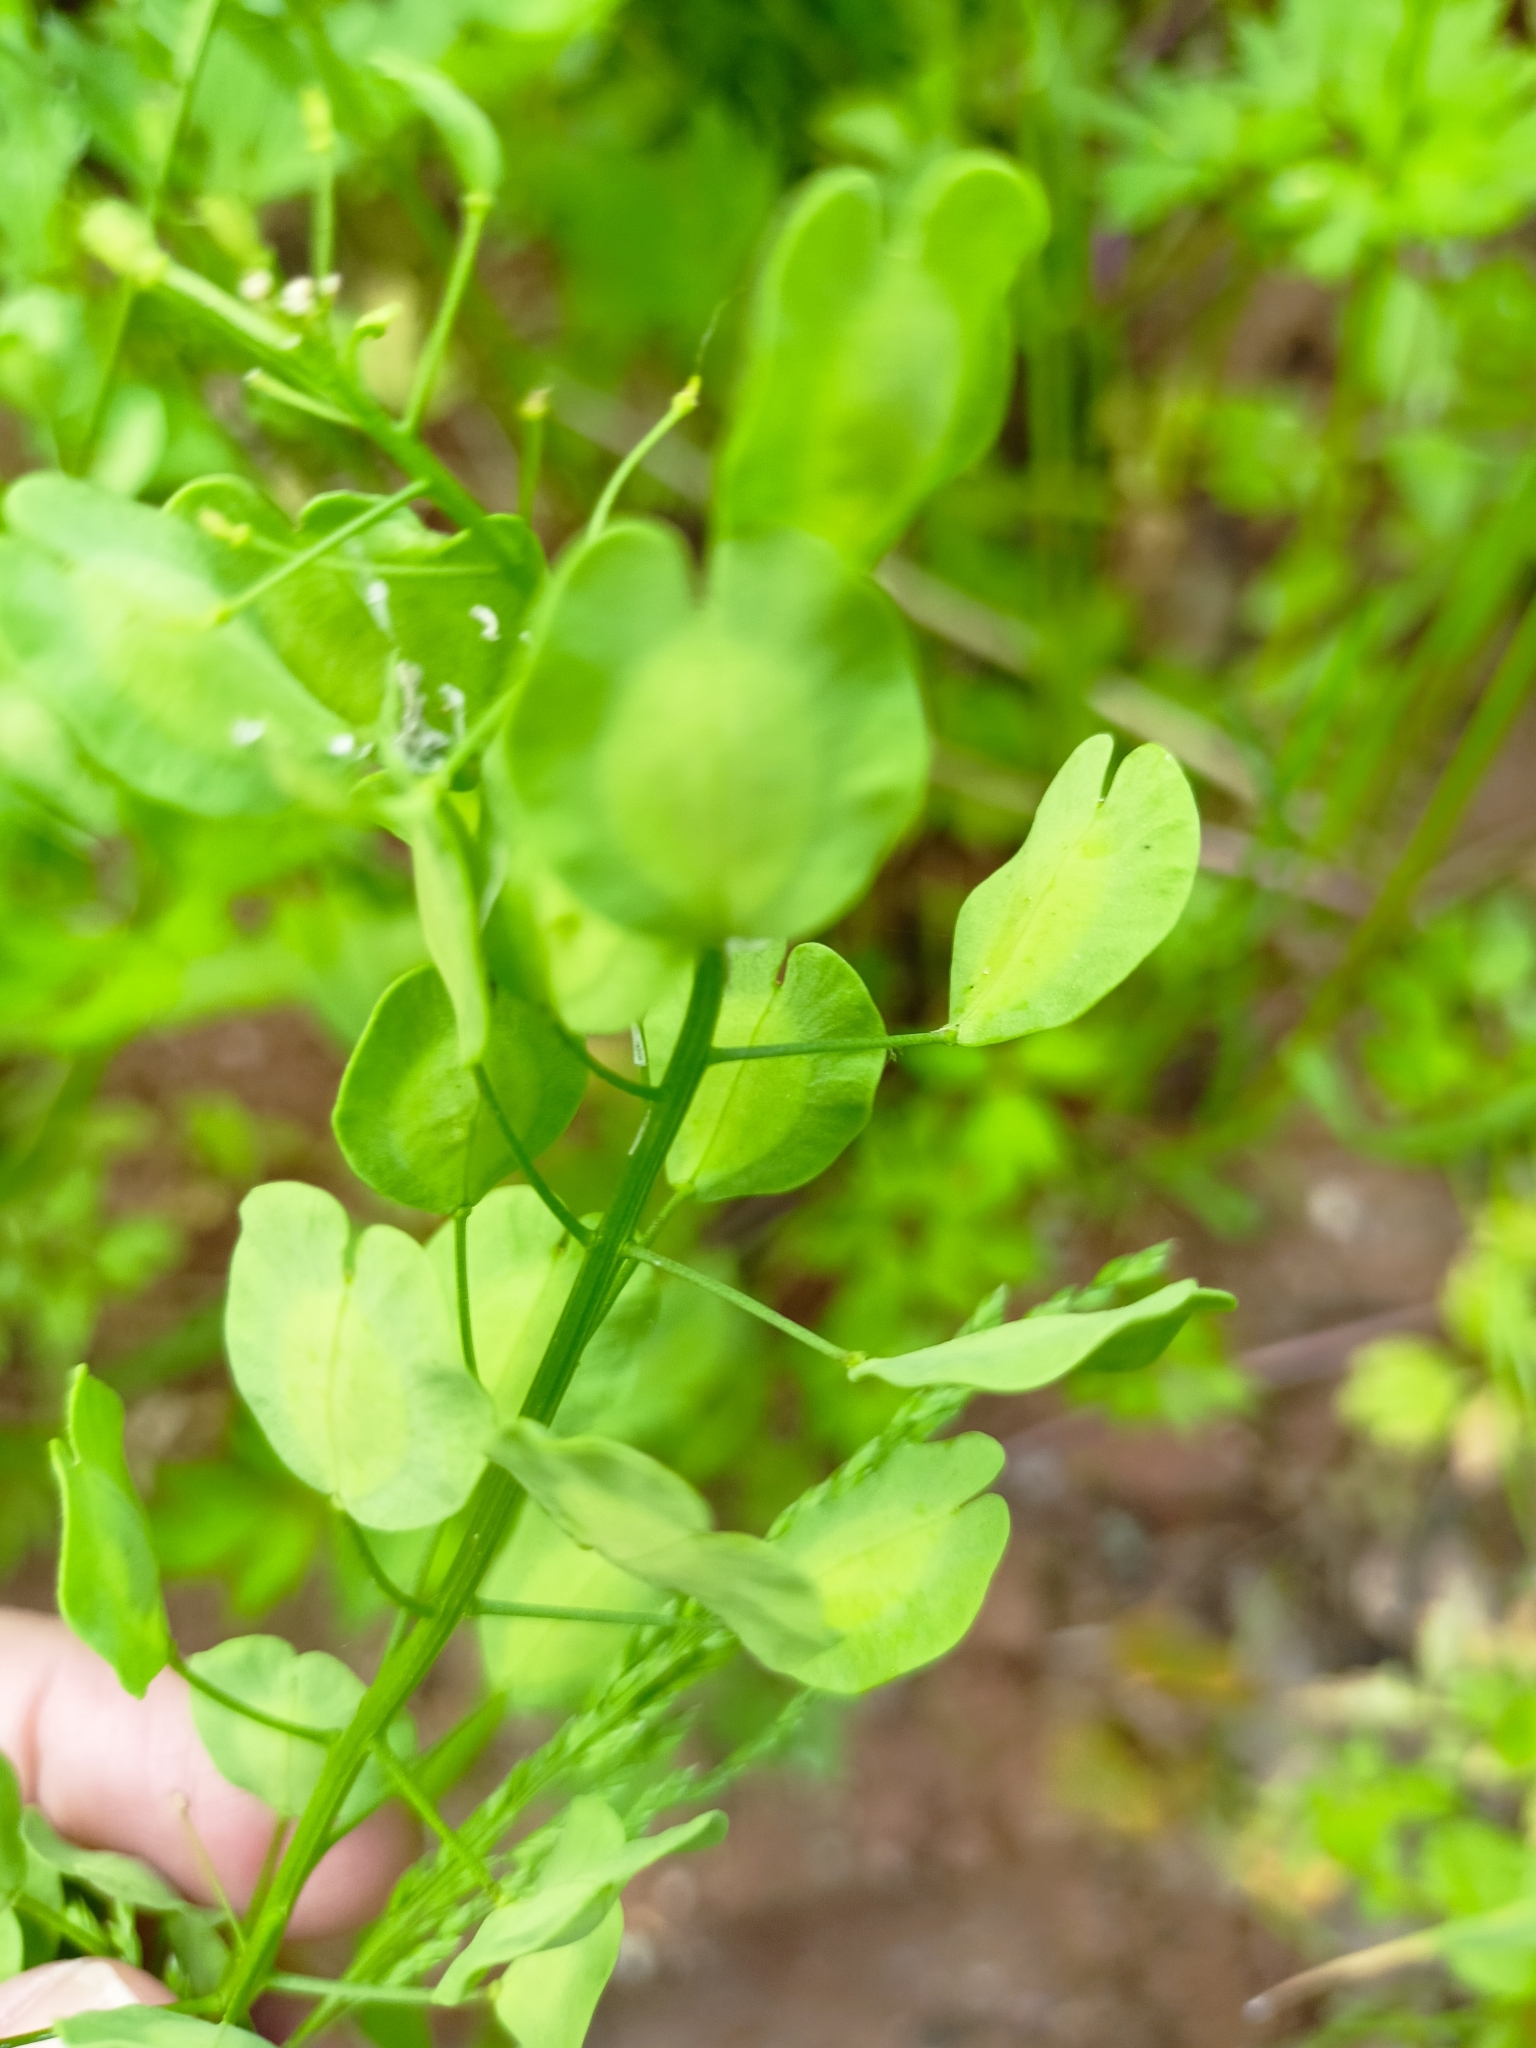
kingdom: Plantae
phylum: Tracheophyta
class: Magnoliopsida
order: Brassicales
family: Brassicaceae
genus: Thlaspi
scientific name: Thlaspi arvense
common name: Field pennycress
